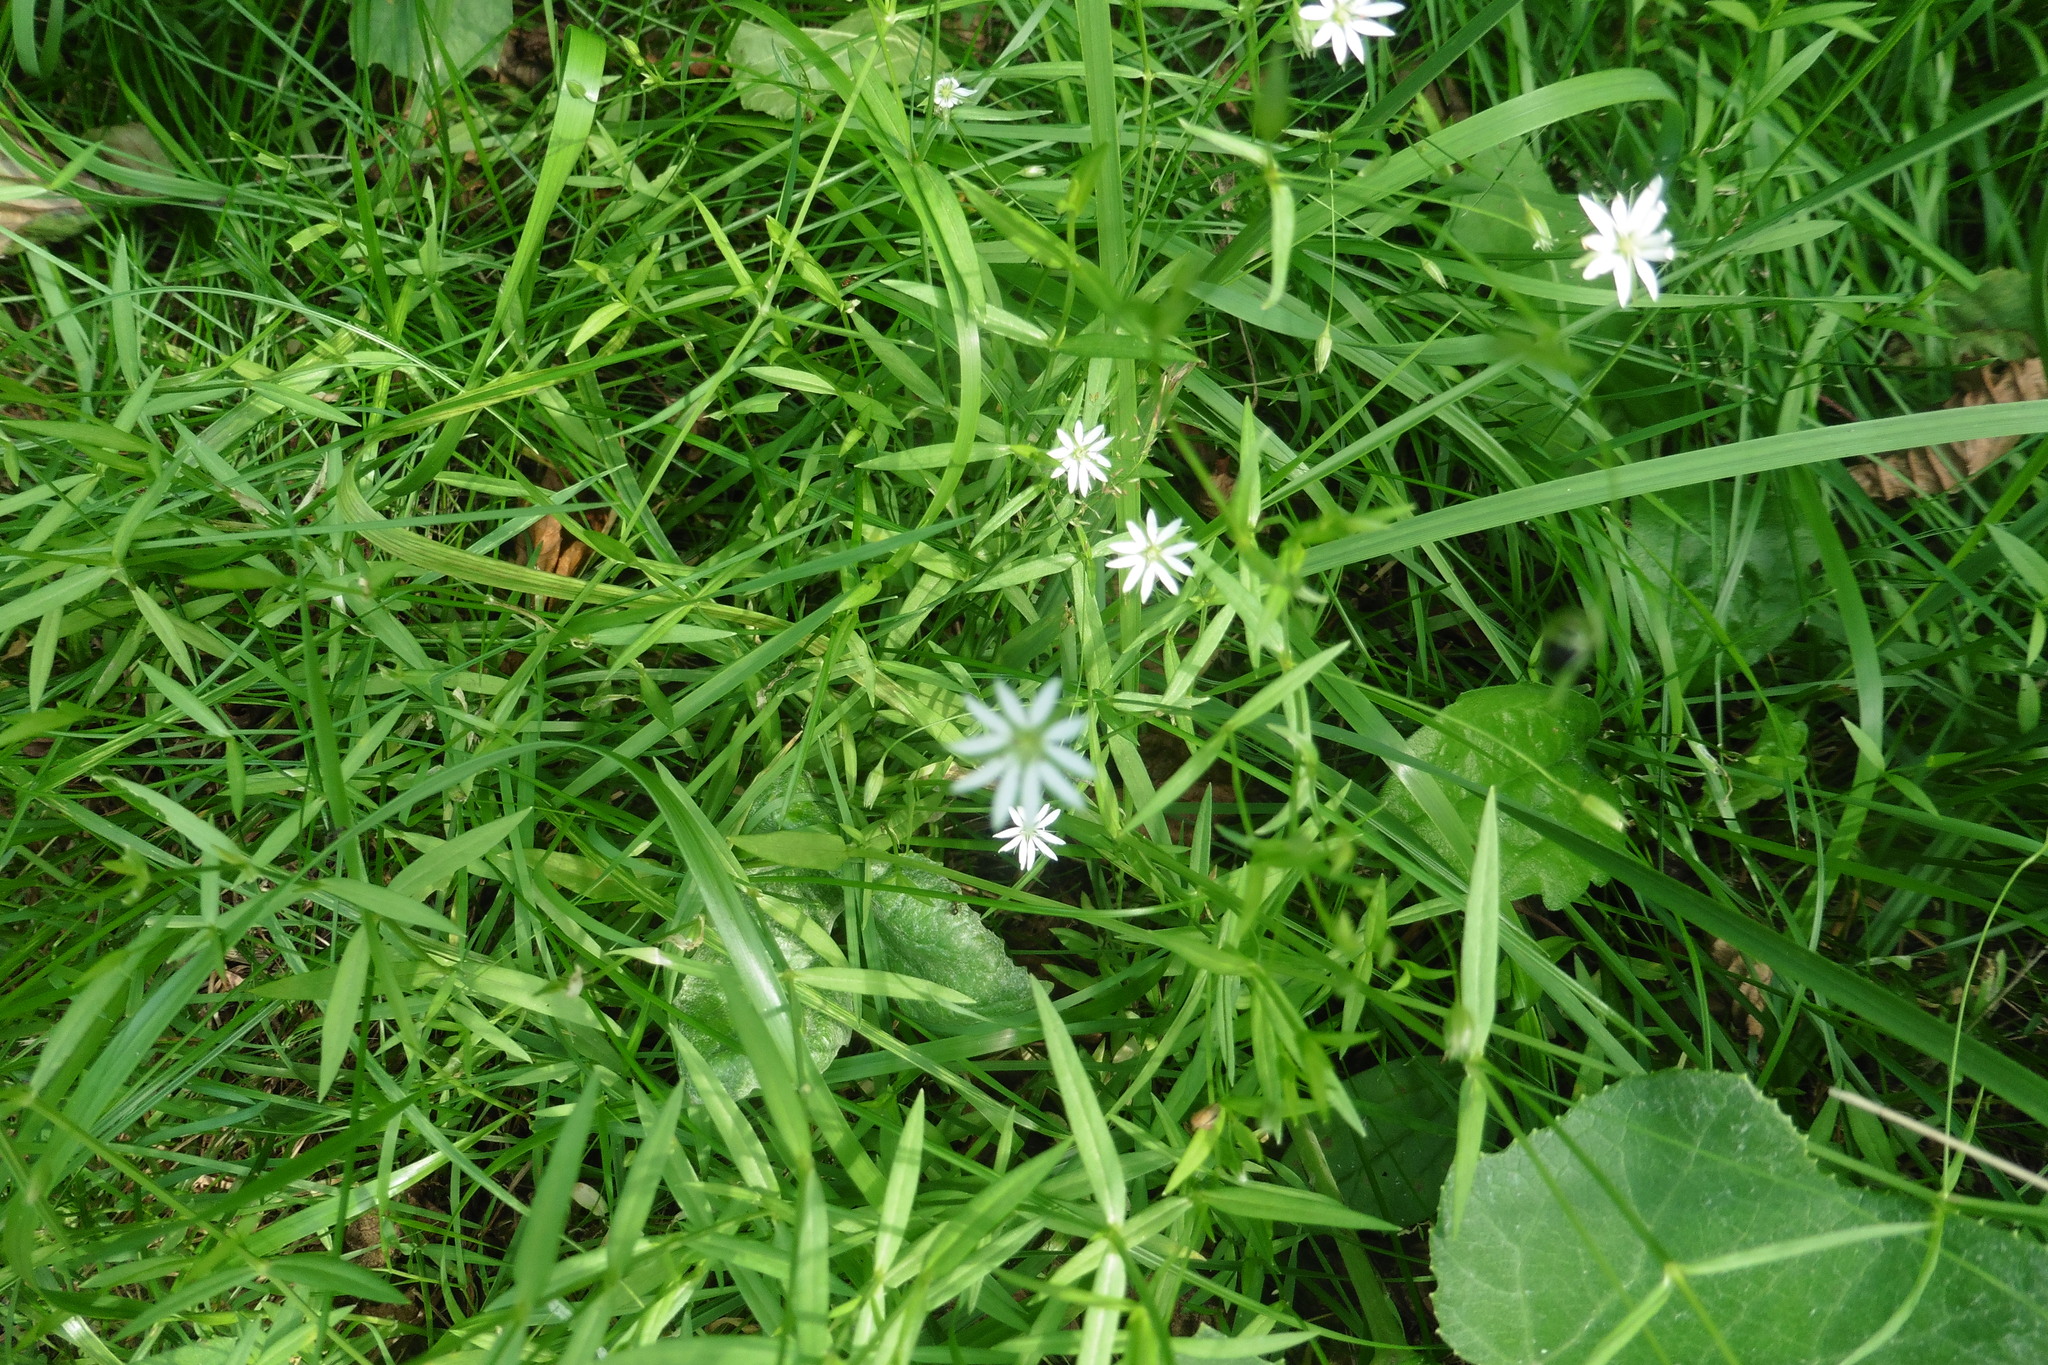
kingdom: Plantae
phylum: Tracheophyta
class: Magnoliopsida
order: Caryophyllales
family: Caryophyllaceae
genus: Stellaria
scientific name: Stellaria graminea
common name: Grass-like starwort
